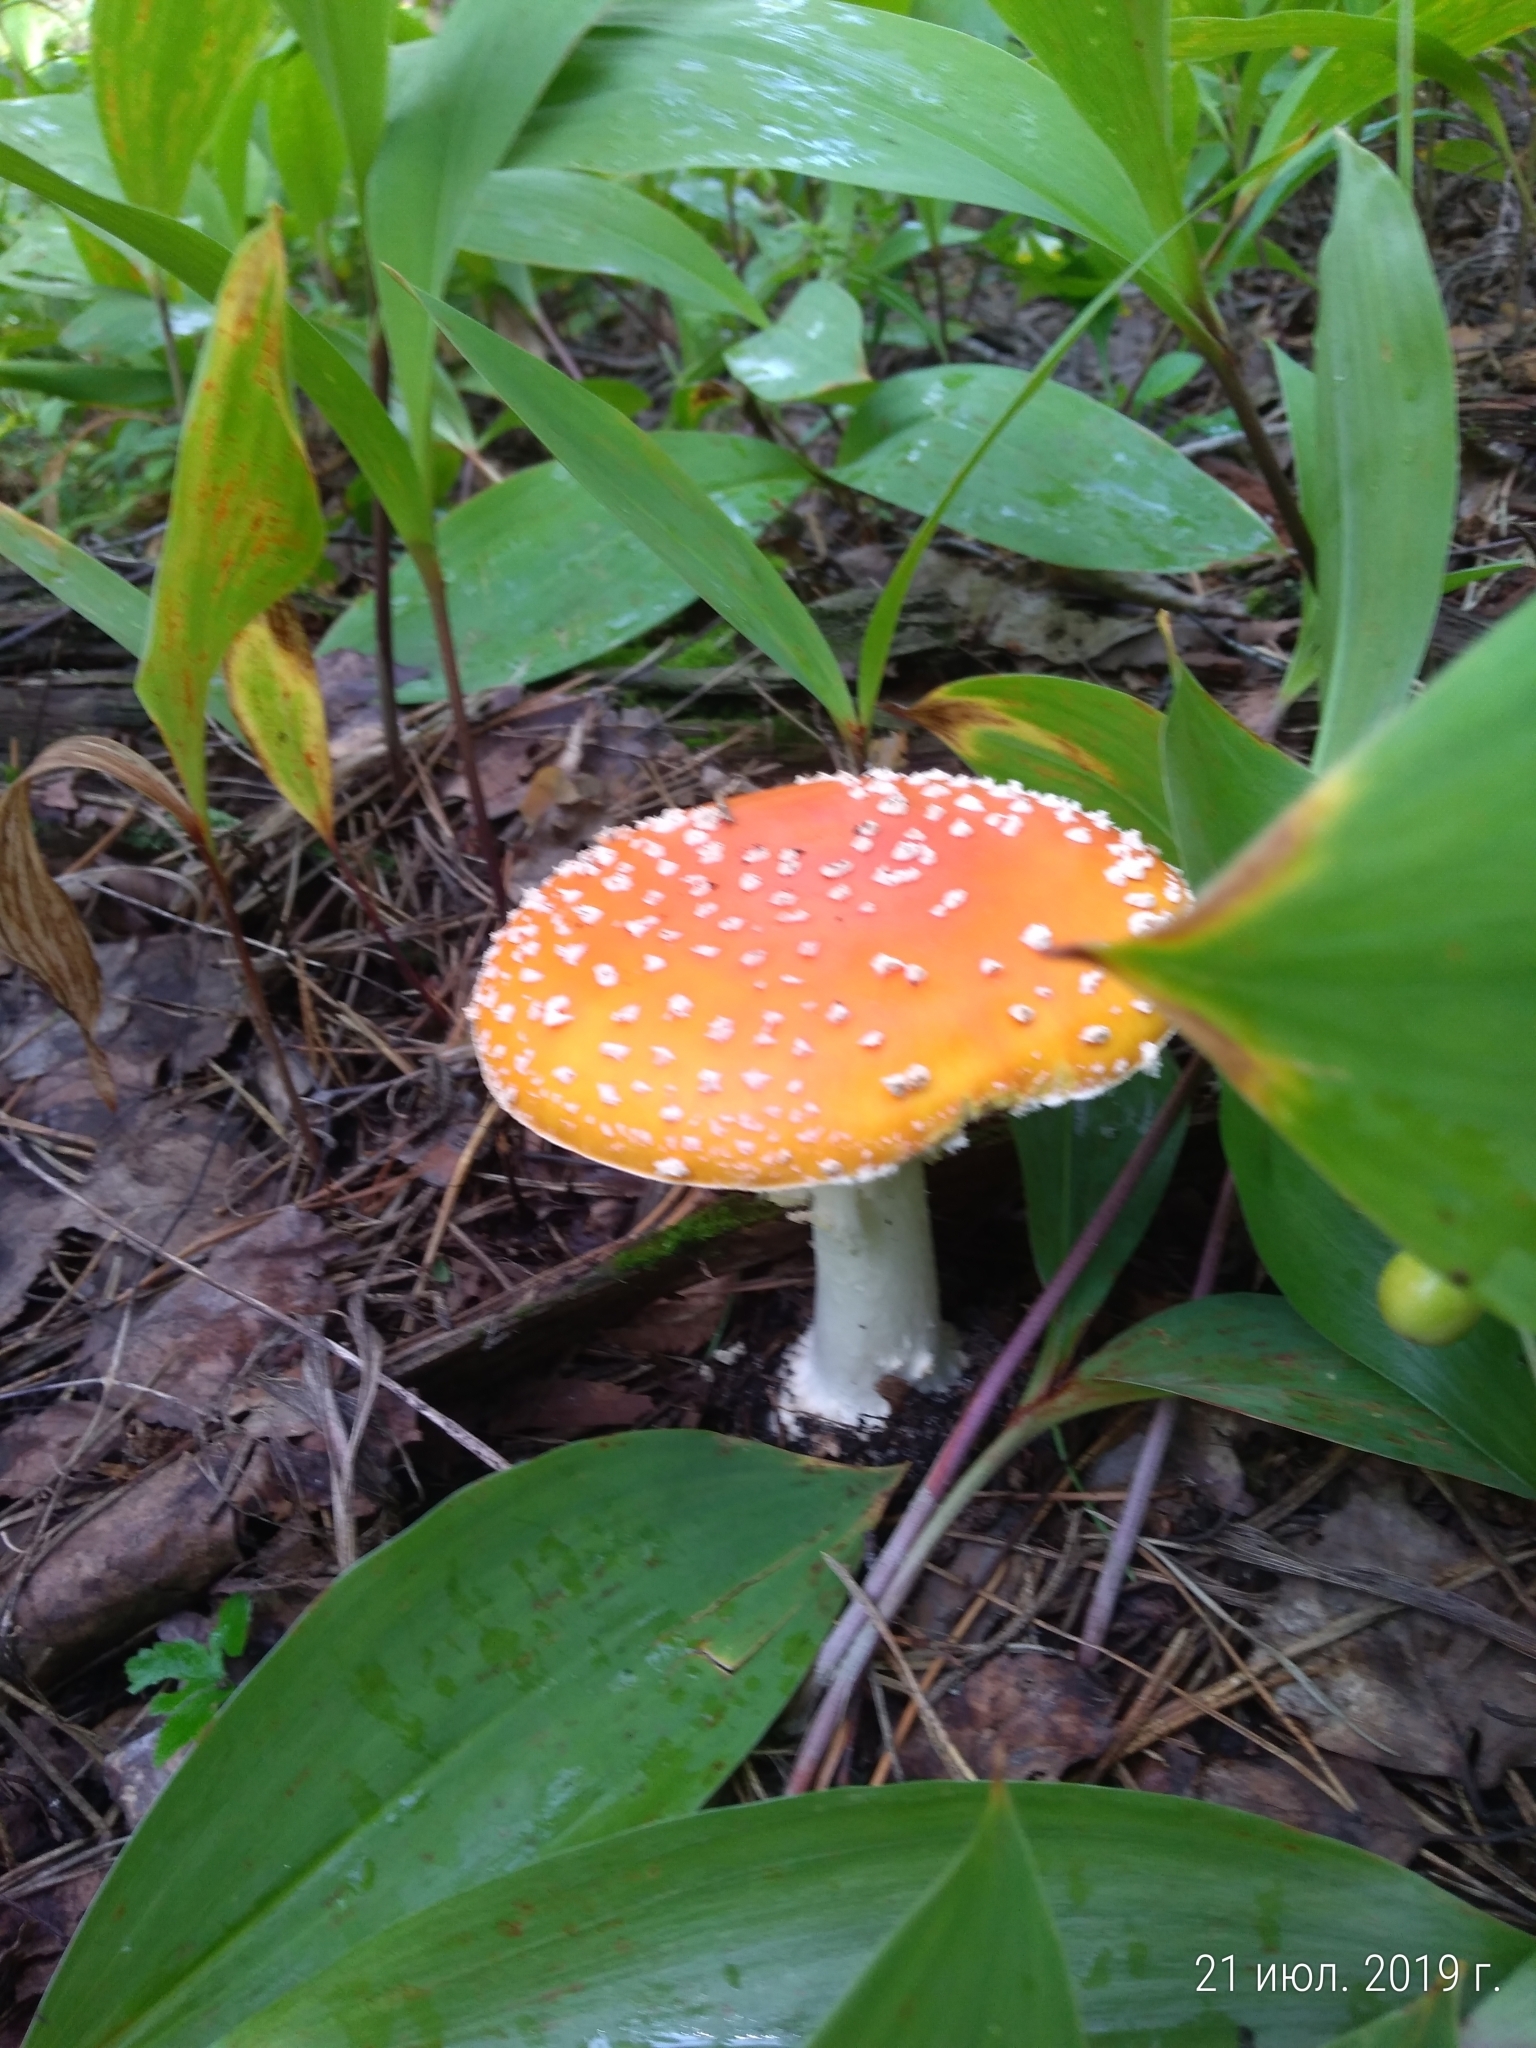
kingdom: Fungi
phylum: Basidiomycota
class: Agaricomycetes
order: Agaricales
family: Amanitaceae
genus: Amanita
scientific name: Amanita muscaria
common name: Fly agaric
